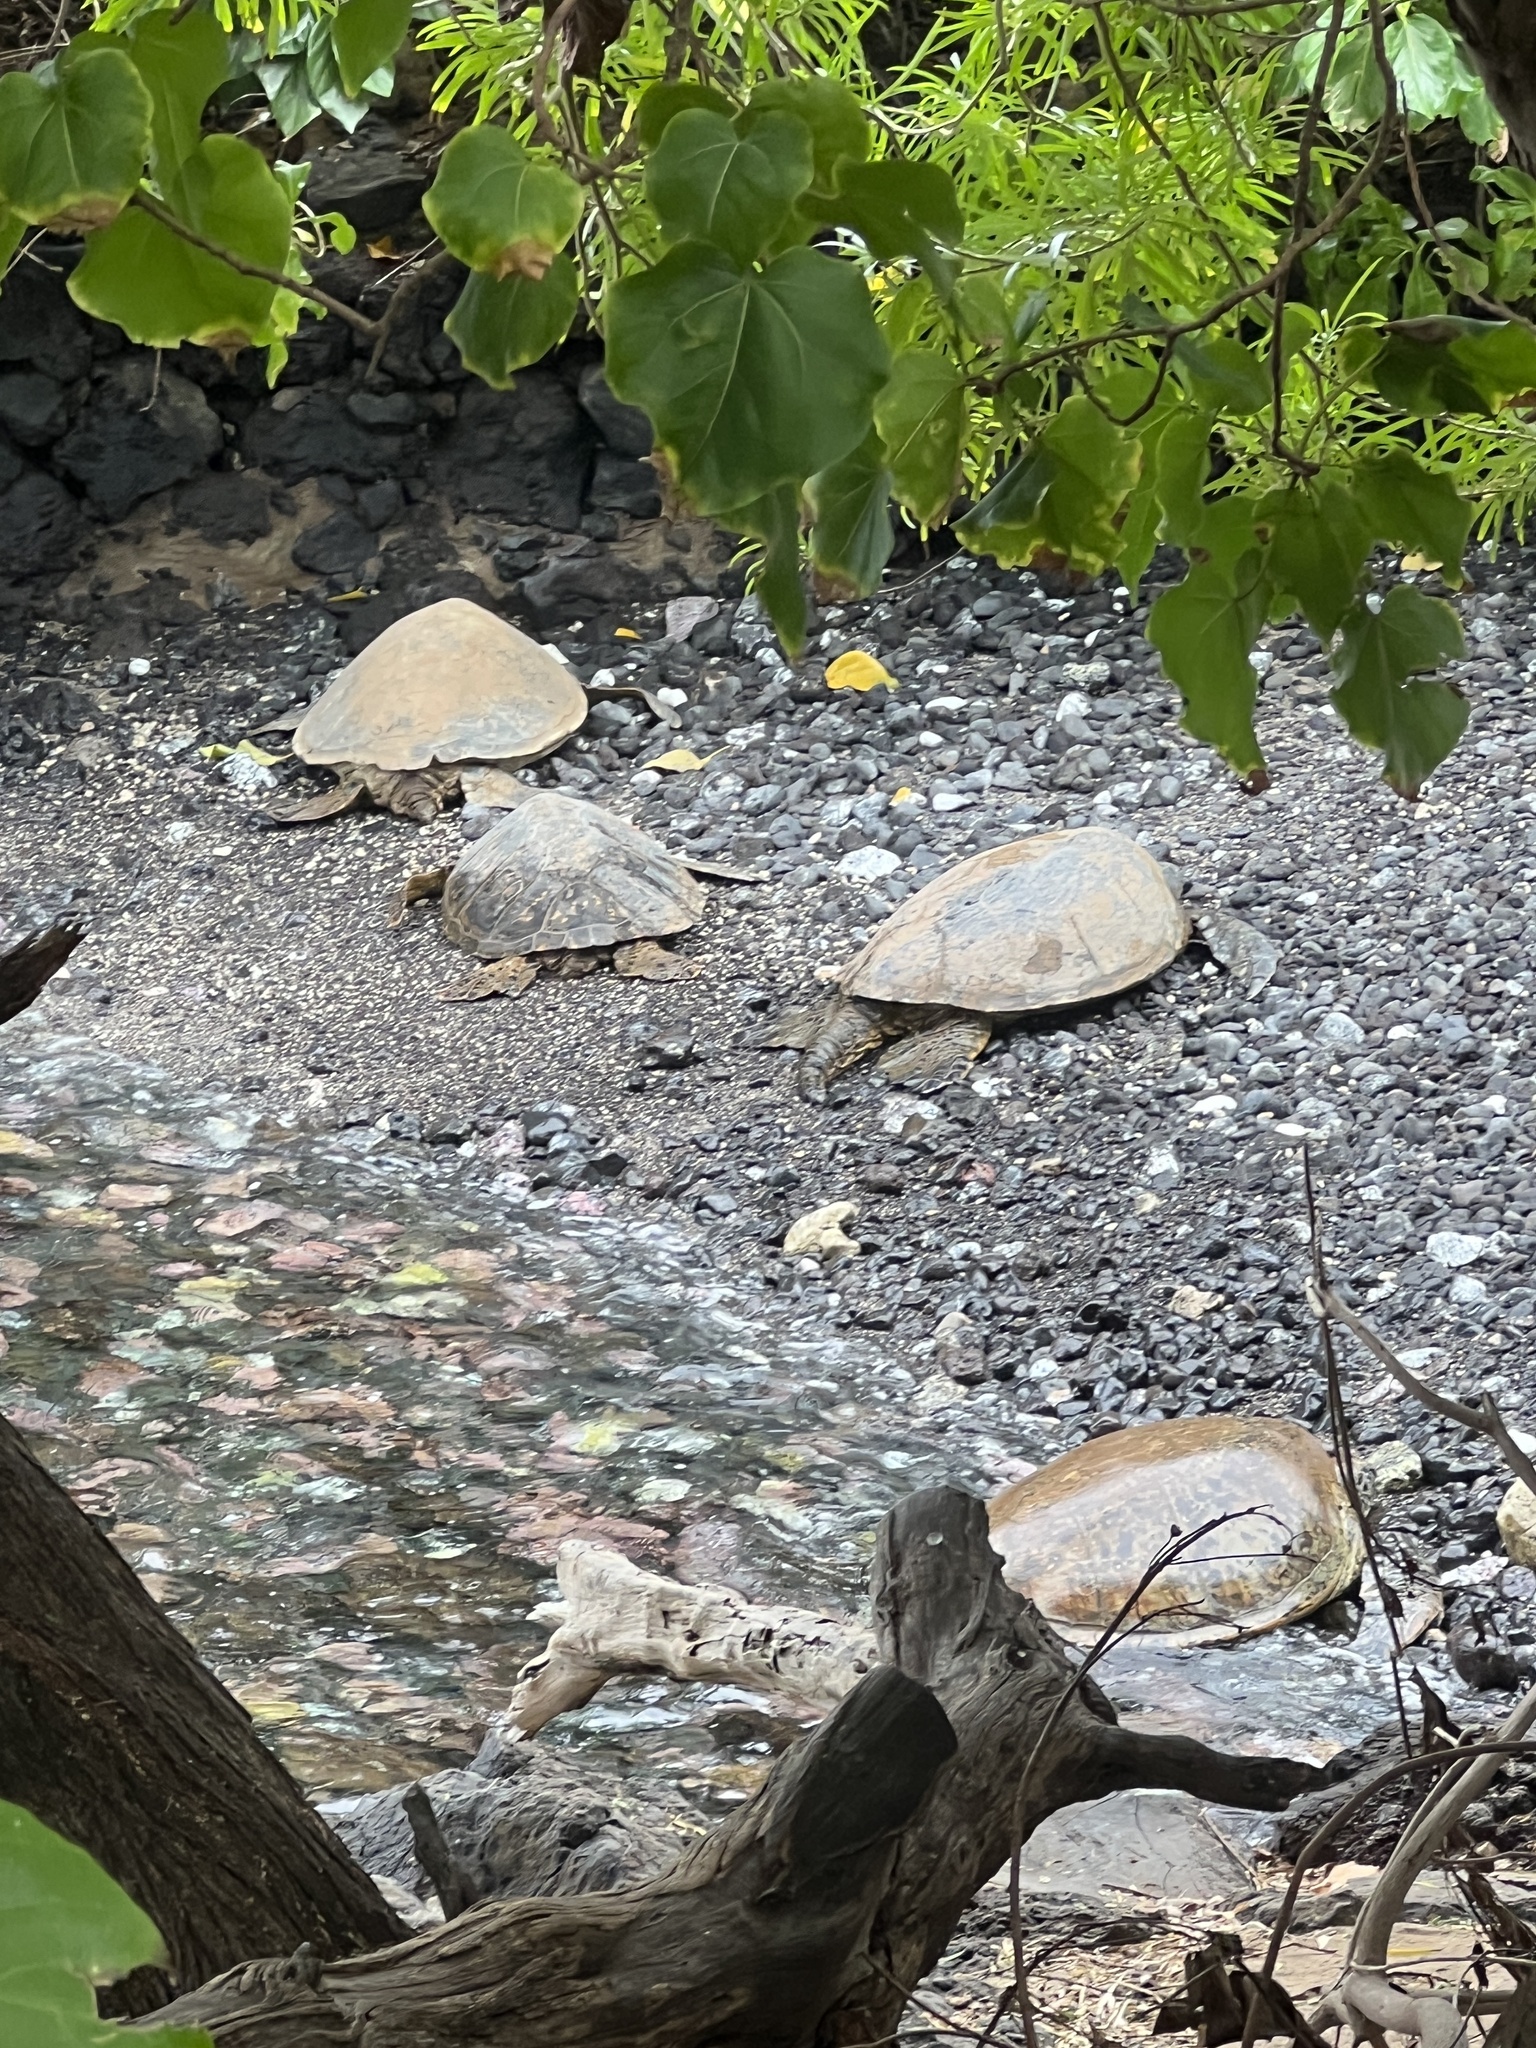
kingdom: Animalia
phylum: Chordata
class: Testudines
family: Cheloniidae
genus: Chelonia
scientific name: Chelonia mydas
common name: Green turtle
